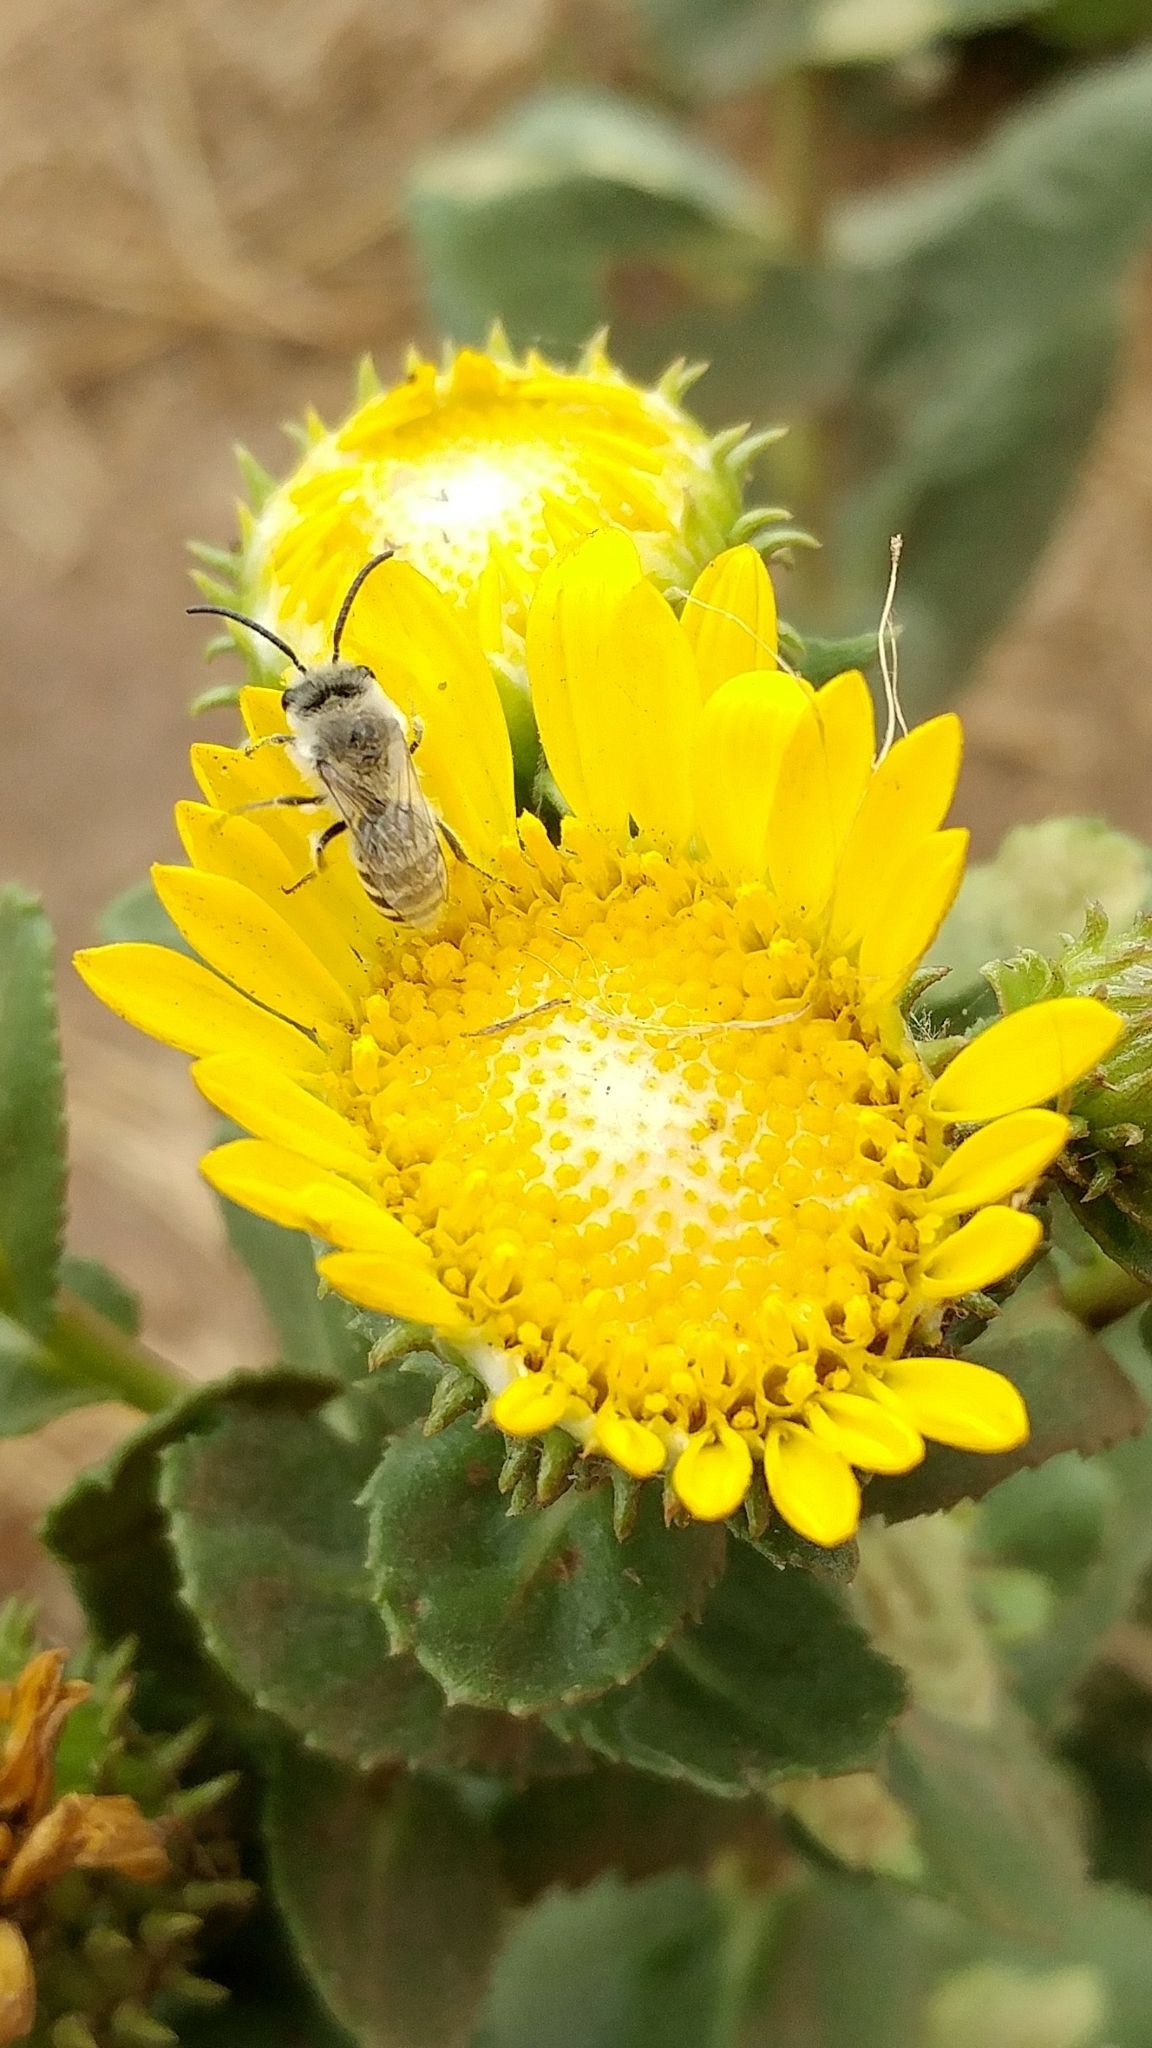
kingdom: Animalia
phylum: Arthropoda
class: Insecta
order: Hymenoptera
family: Colletidae
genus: Colletes
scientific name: Colletes hyalinus
